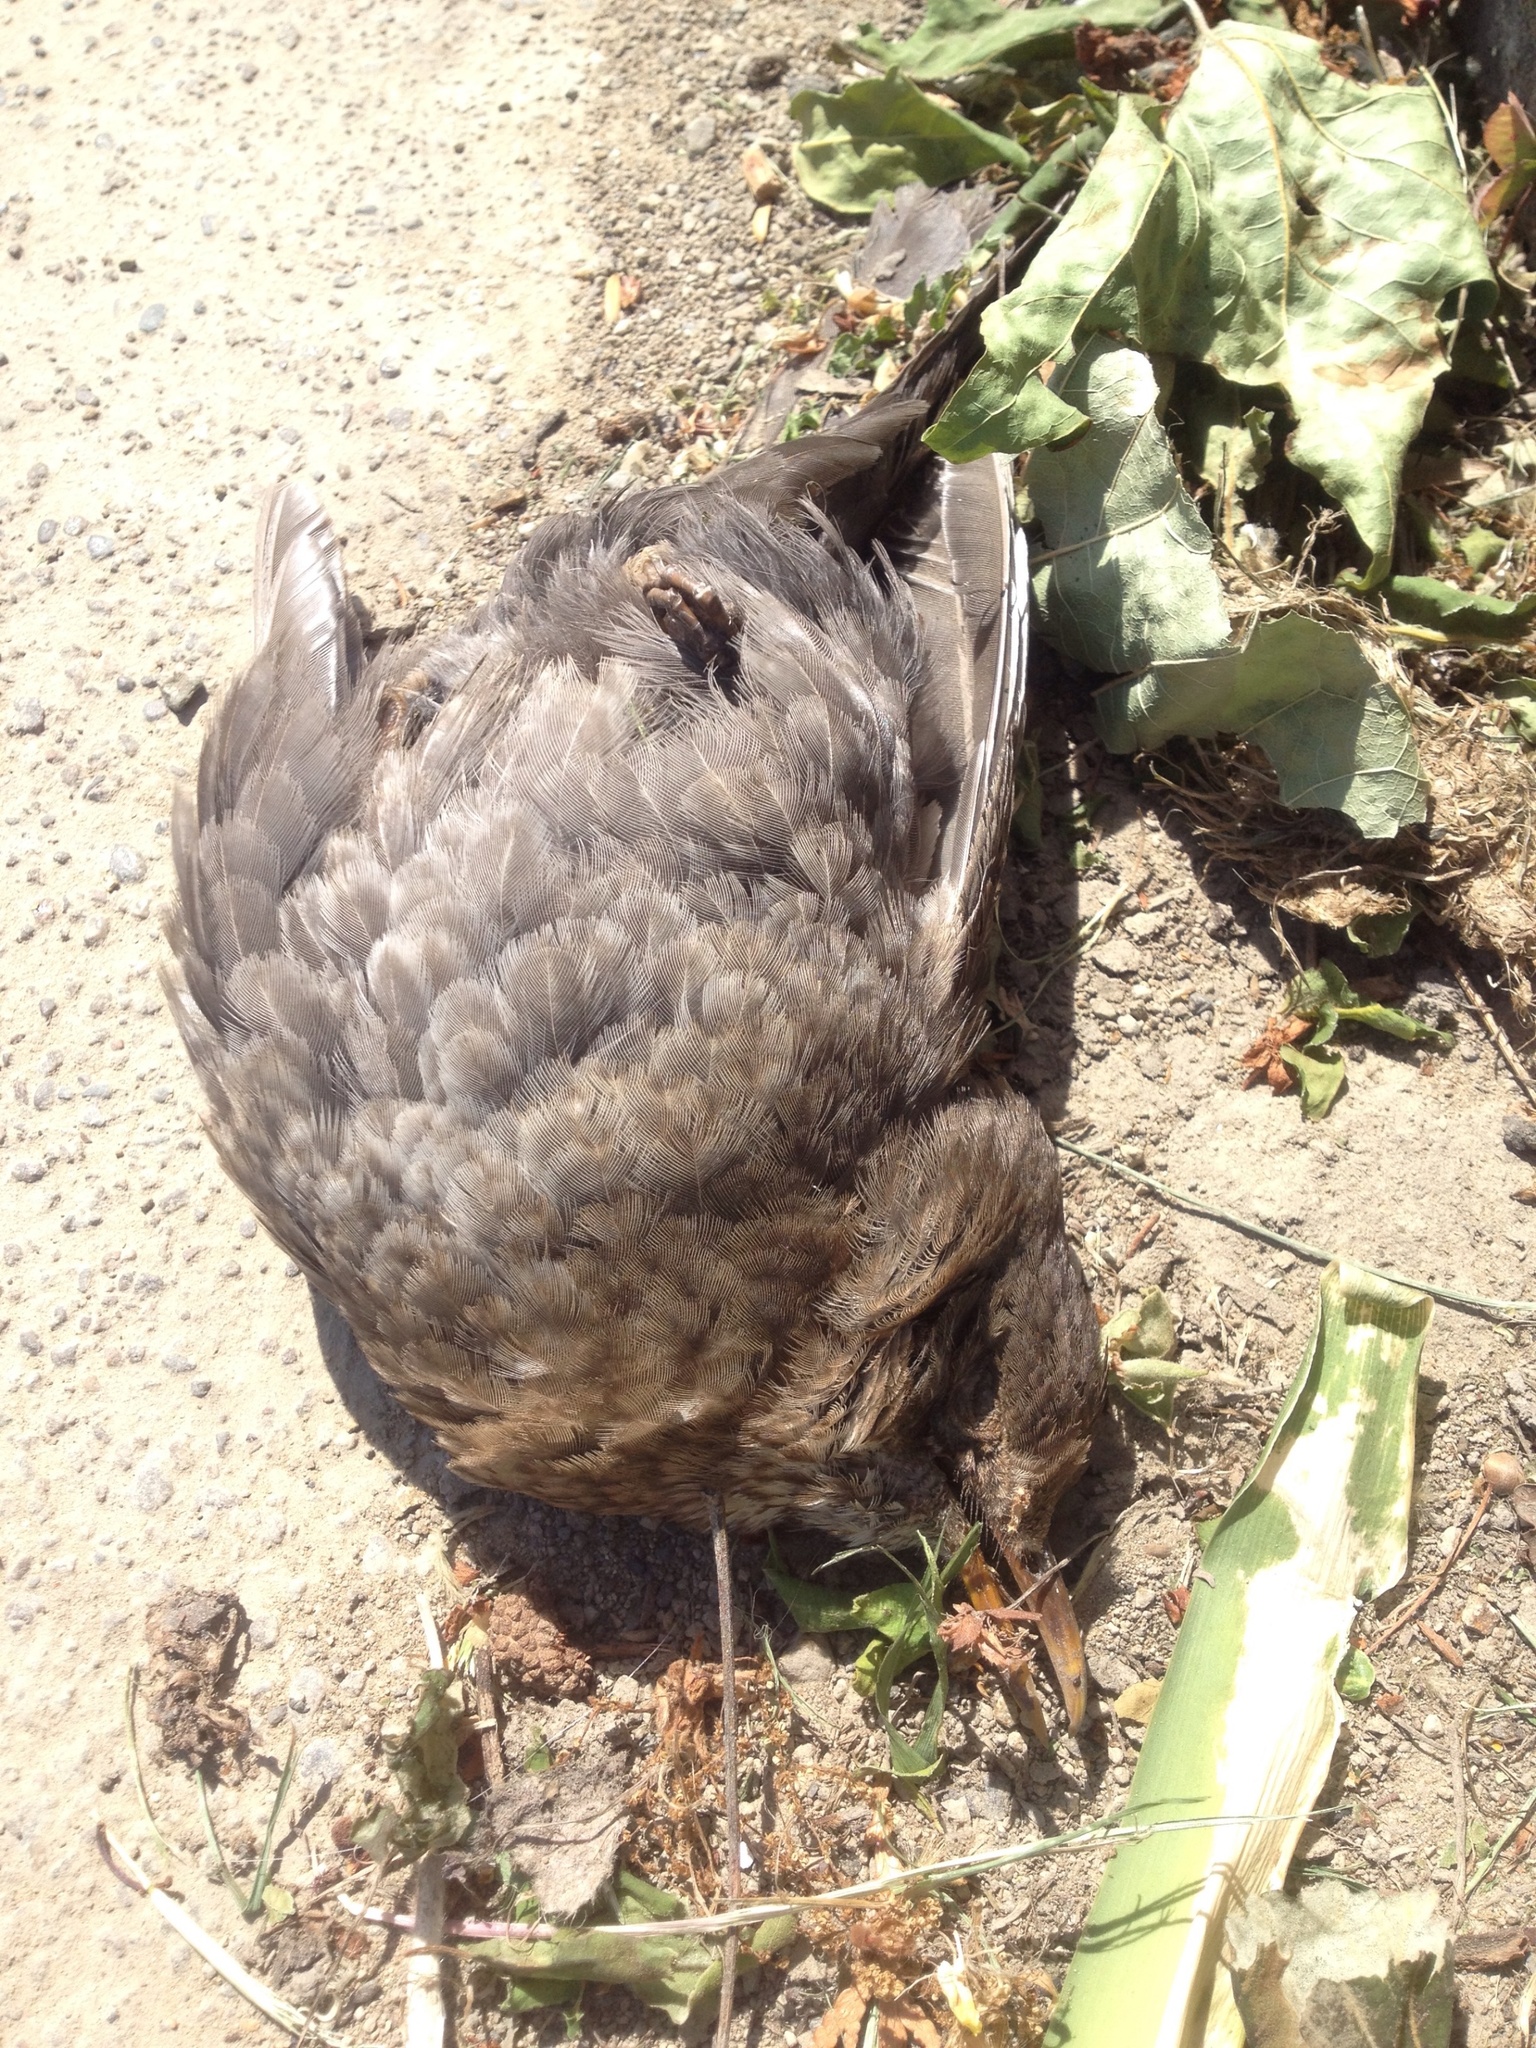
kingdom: Animalia
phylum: Chordata
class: Aves
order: Passeriformes
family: Turdidae
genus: Turdus
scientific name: Turdus merula
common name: Common blackbird
